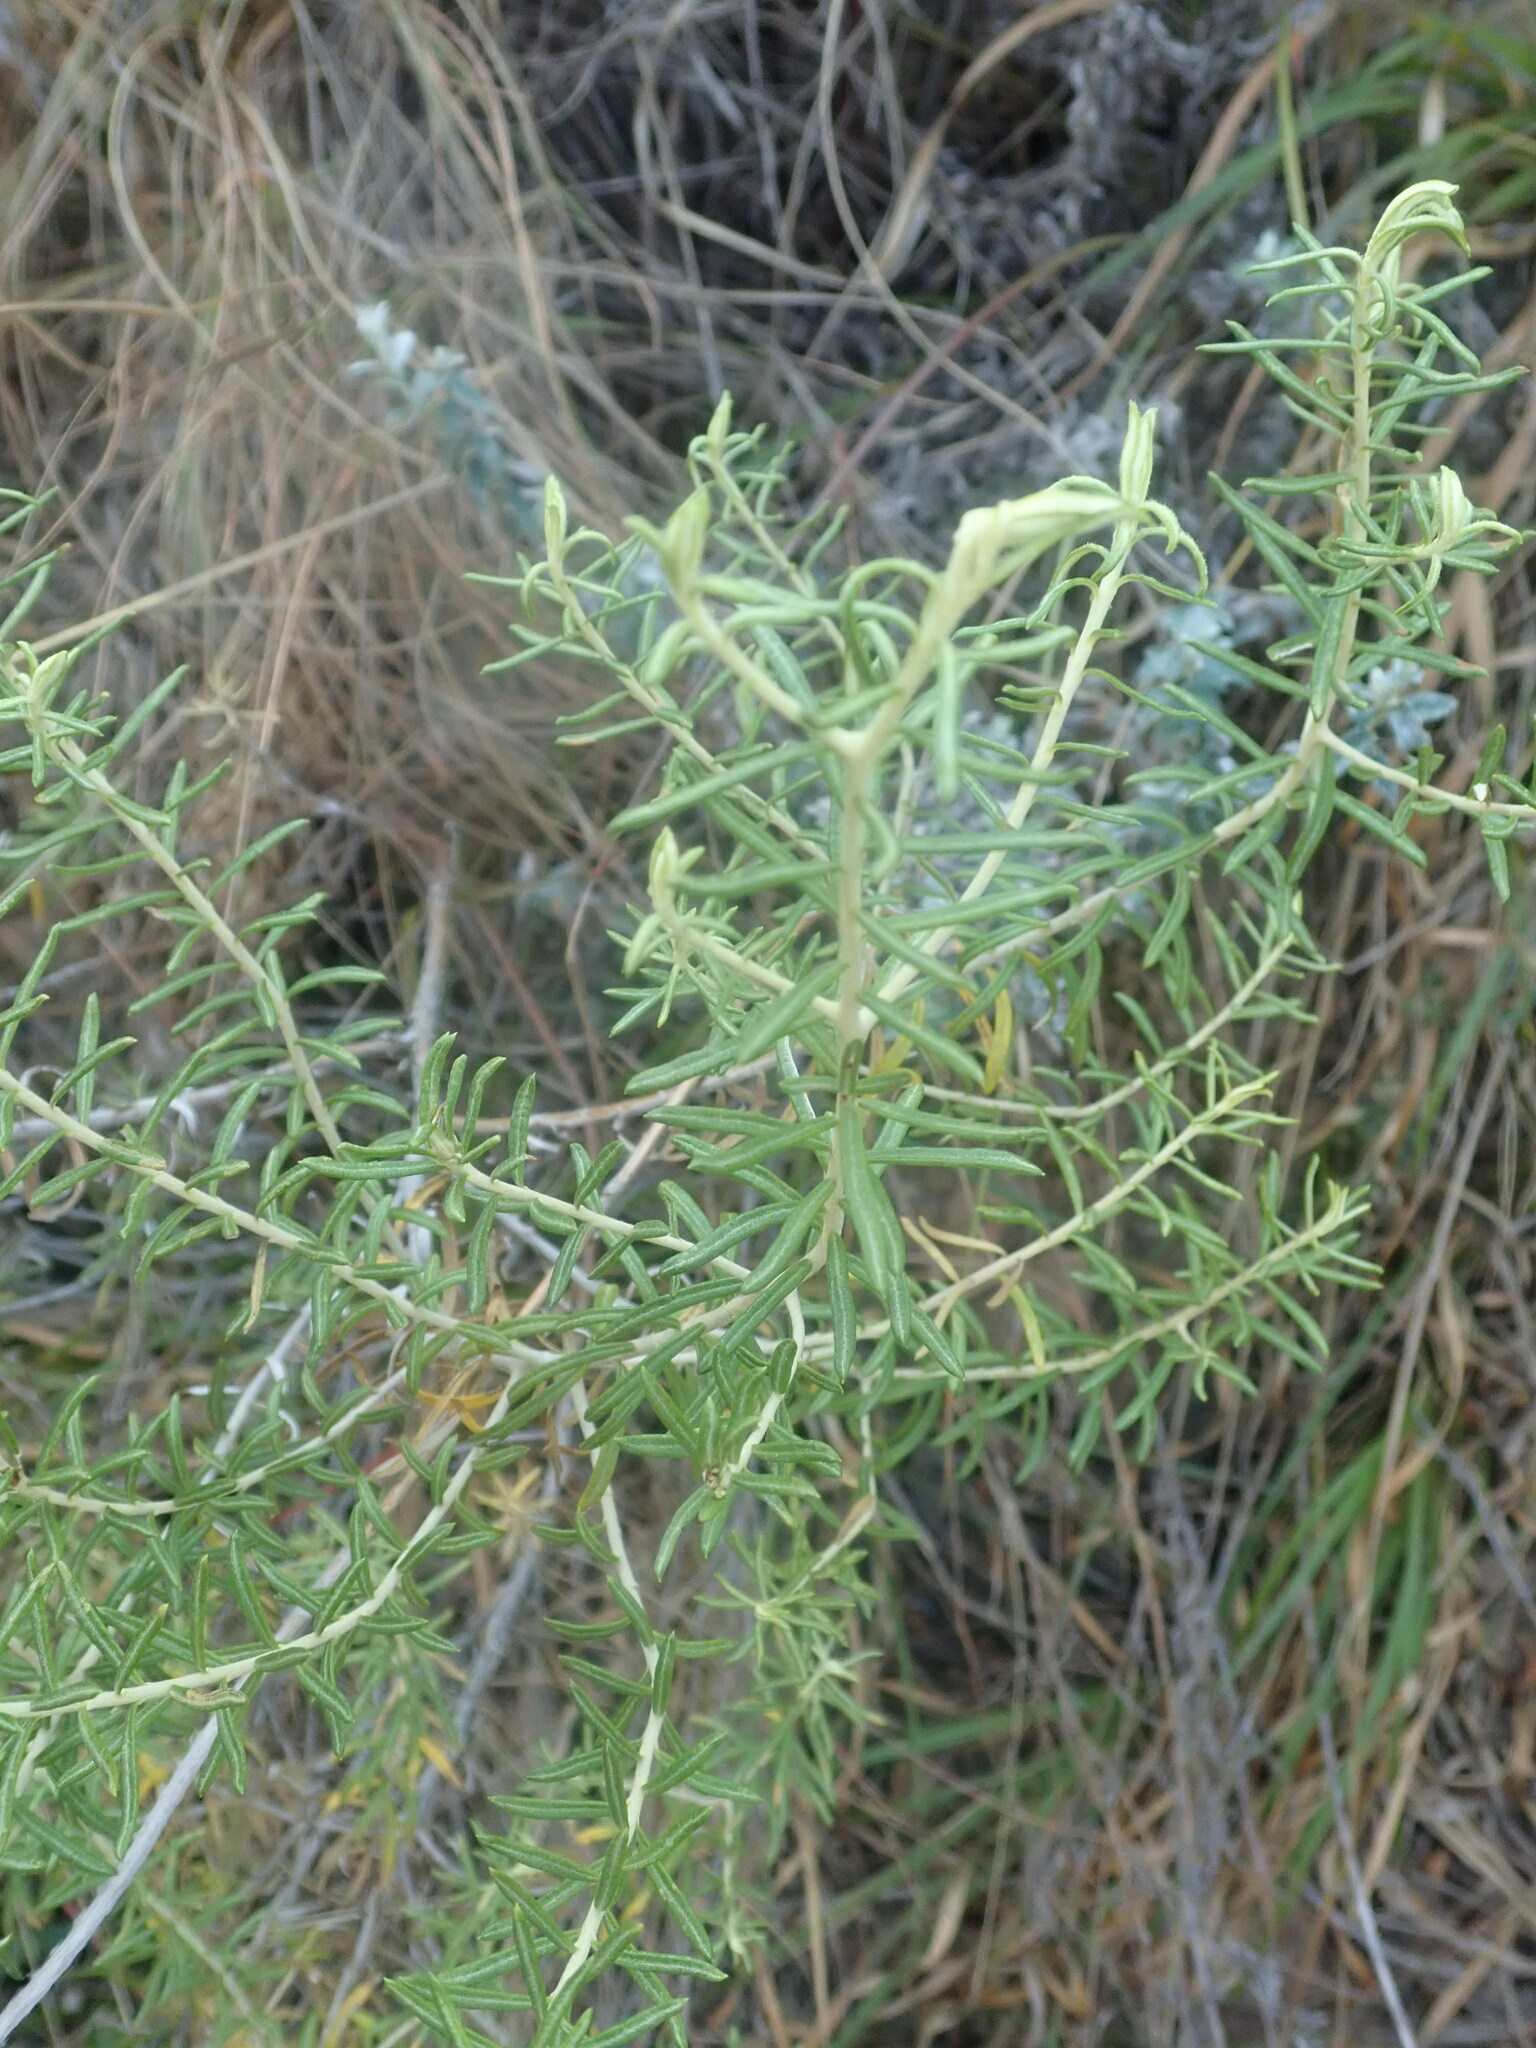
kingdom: Plantae
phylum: Tracheophyta
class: Magnoliopsida
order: Asterales
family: Asteraceae
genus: Helichrysum
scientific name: Helichrysum kraussii
